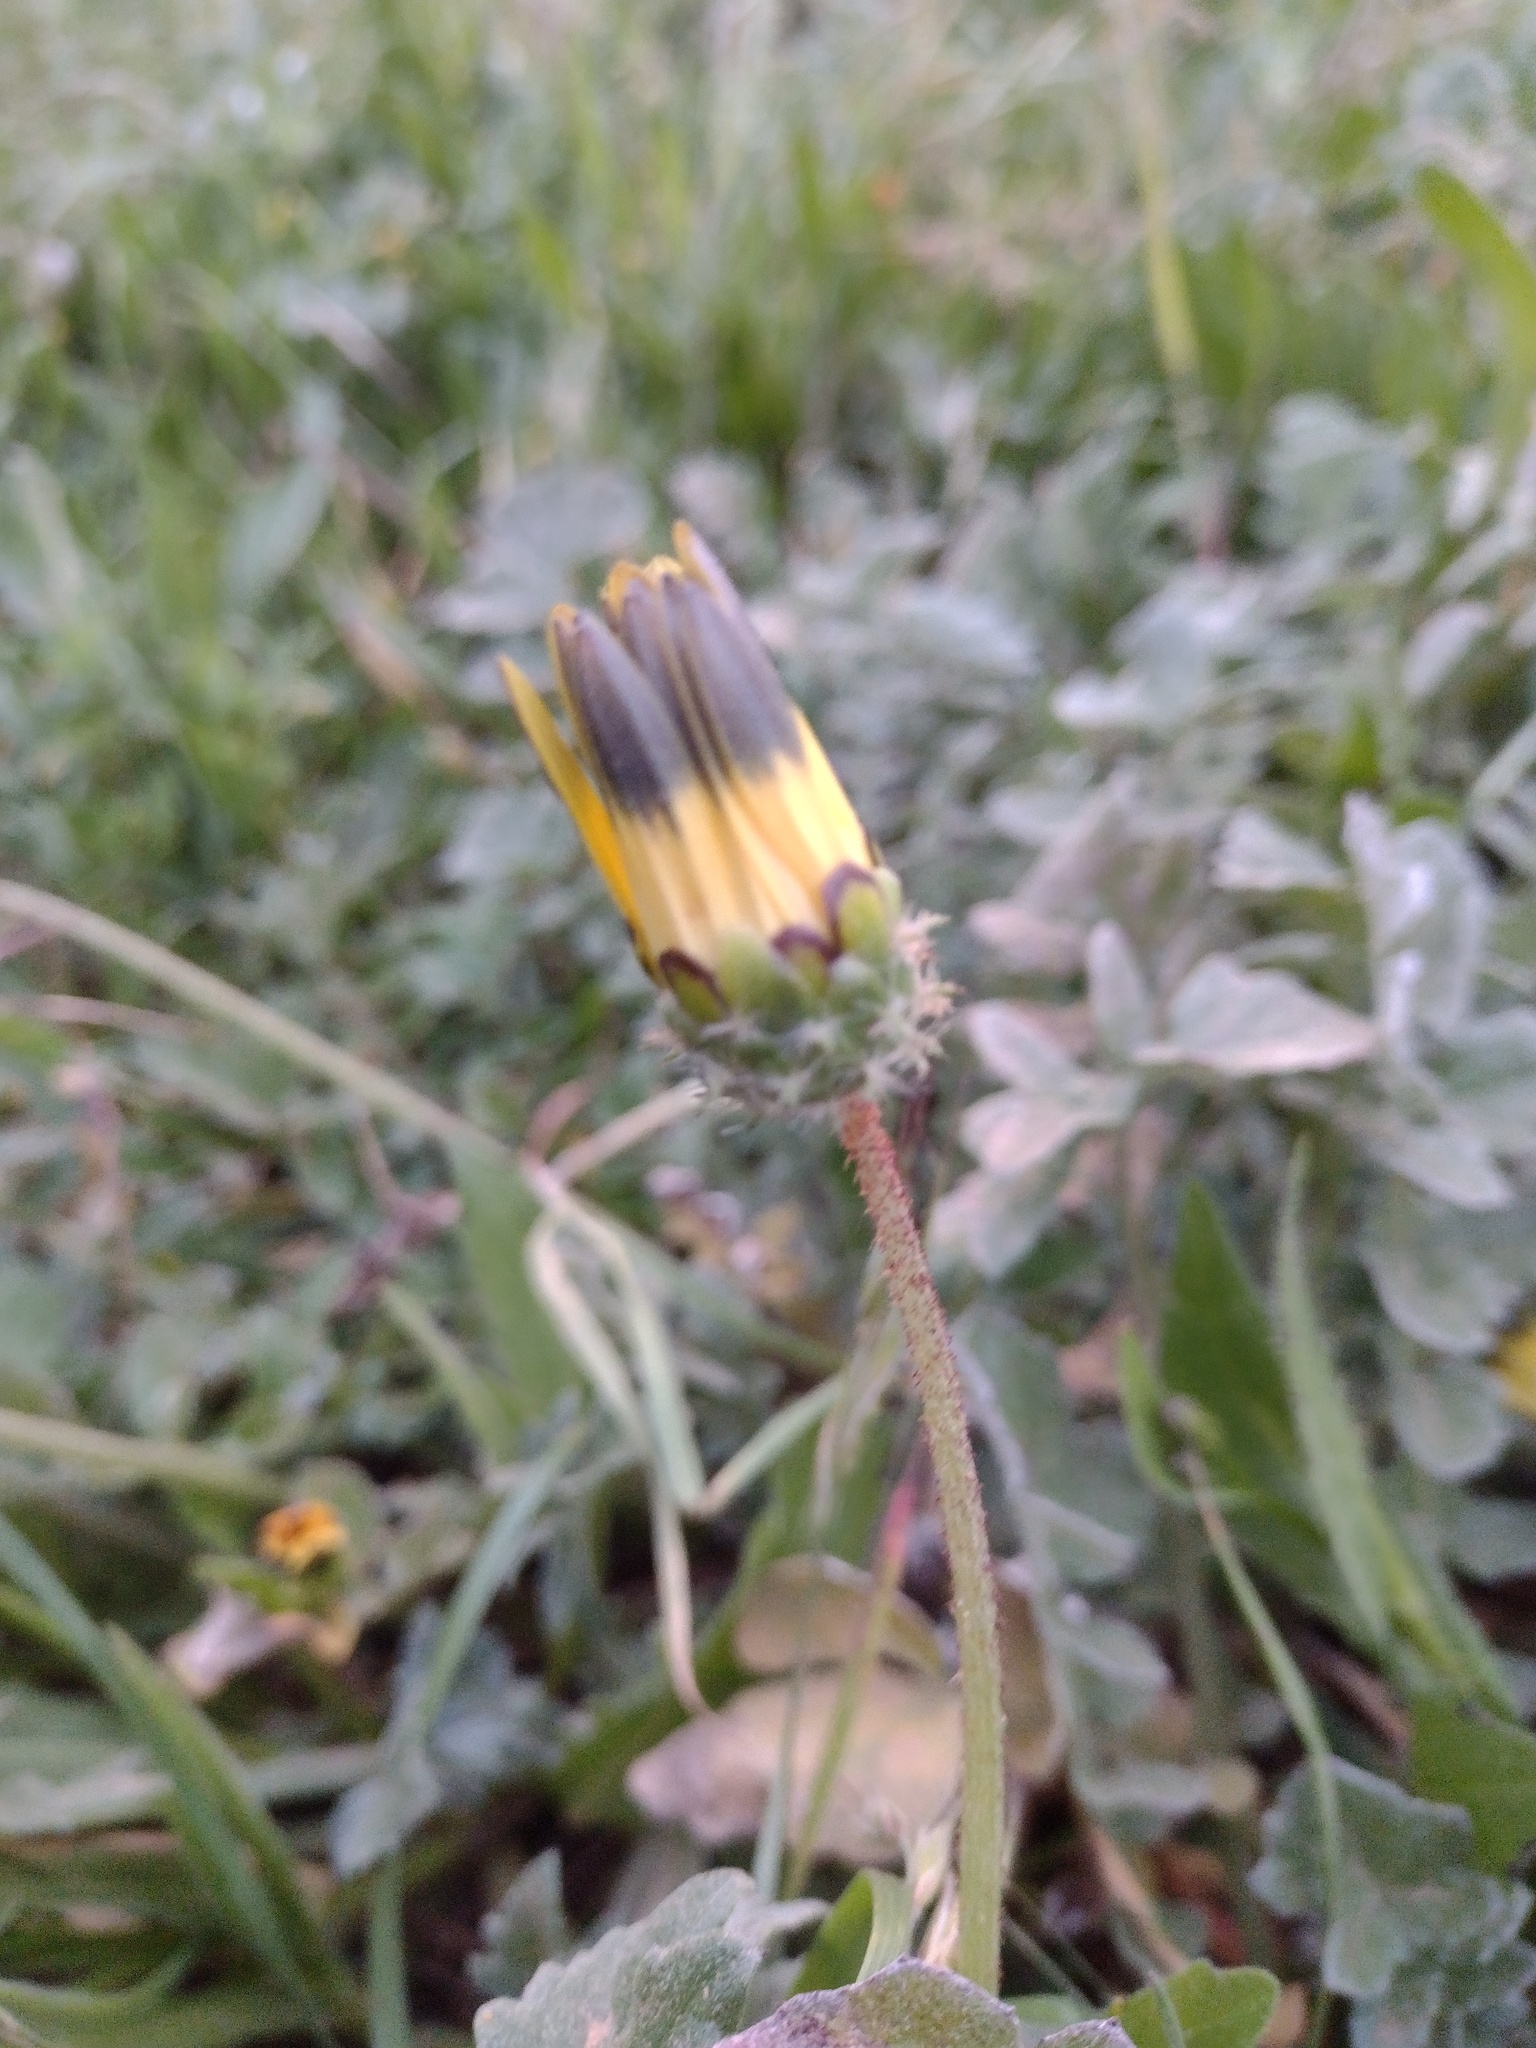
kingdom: Plantae
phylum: Tracheophyta
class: Magnoliopsida
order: Asterales
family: Asteraceae
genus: Arctotheca
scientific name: Arctotheca calendula
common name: Capeweed
